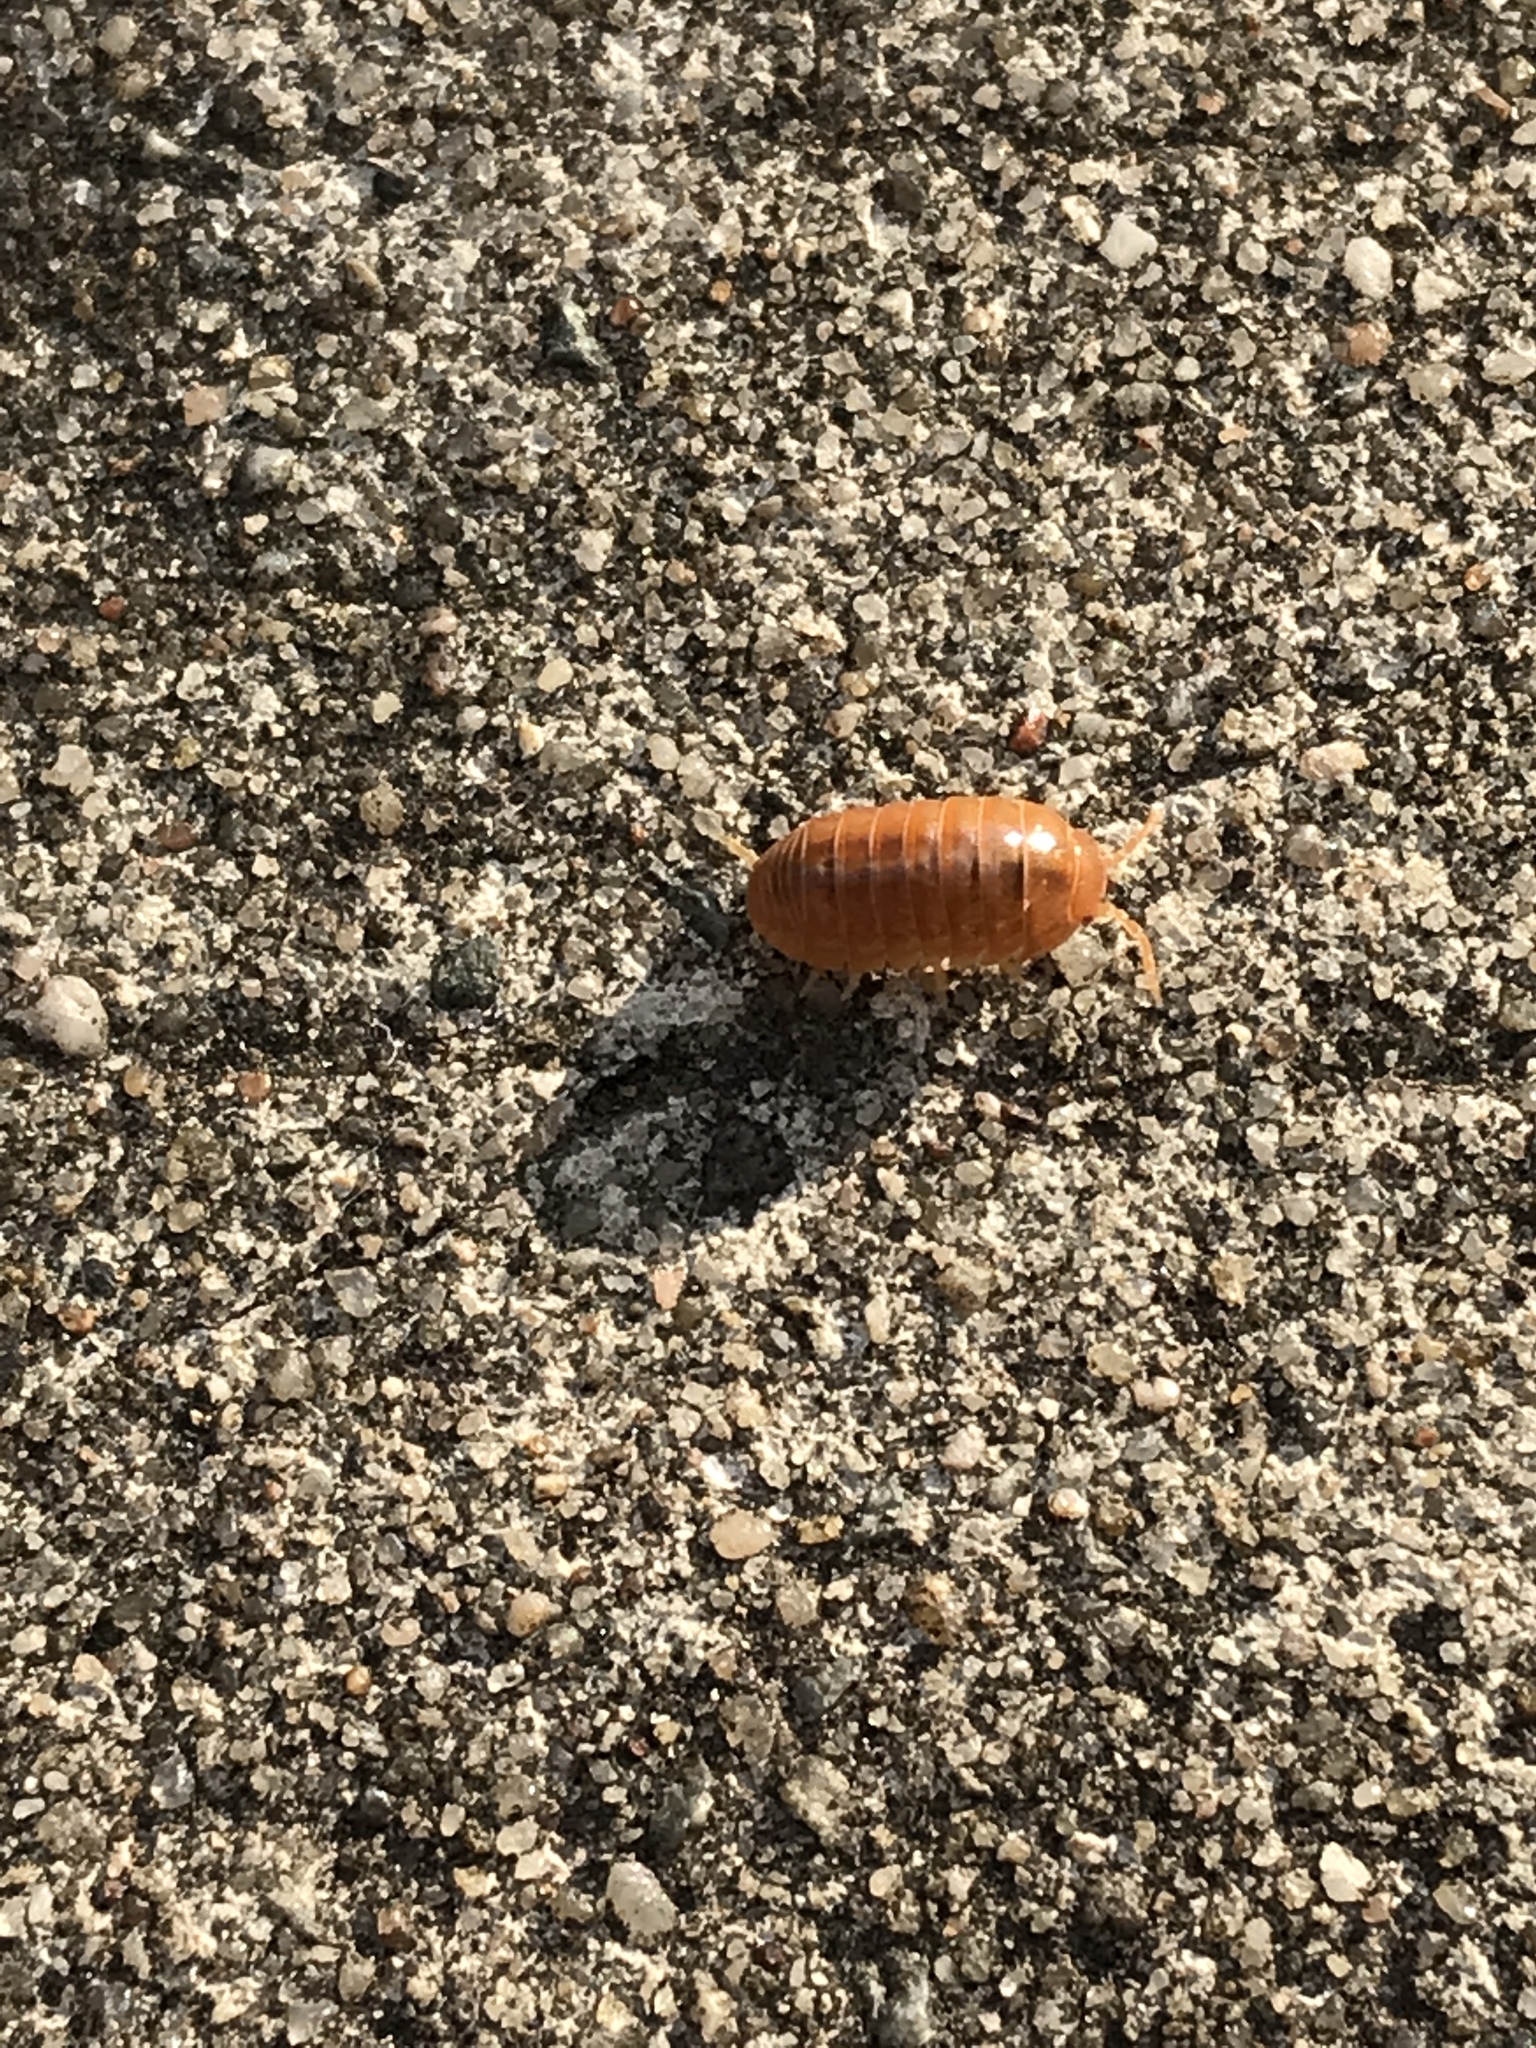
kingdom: Animalia
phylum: Arthropoda
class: Malacostraca
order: Isopoda
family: Armadillidiidae
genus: Armadillidium
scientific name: Armadillidium vulgare
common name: Common pill woodlouse
